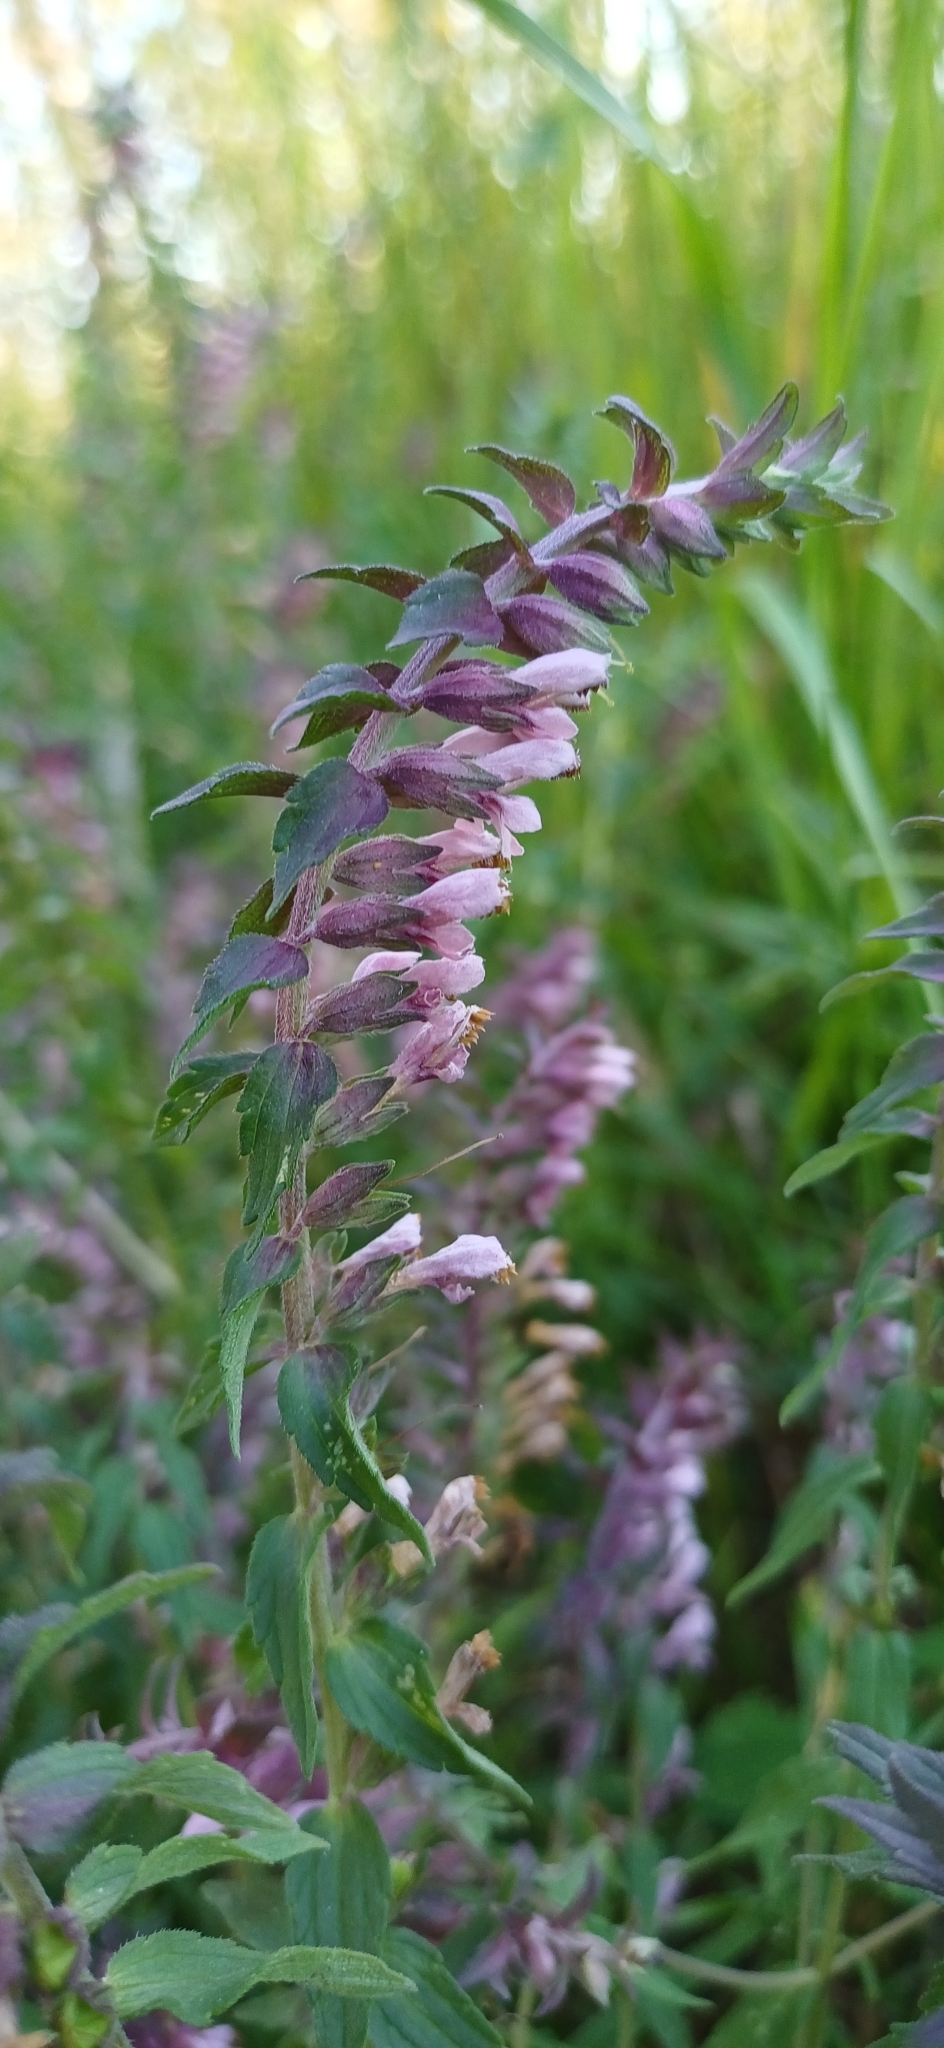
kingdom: Plantae
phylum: Tracheophyta
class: Magnoliopsida
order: Lamiales
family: Orobanchaceae
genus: Odontites
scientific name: Odontites vulgaris
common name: Broomrape
